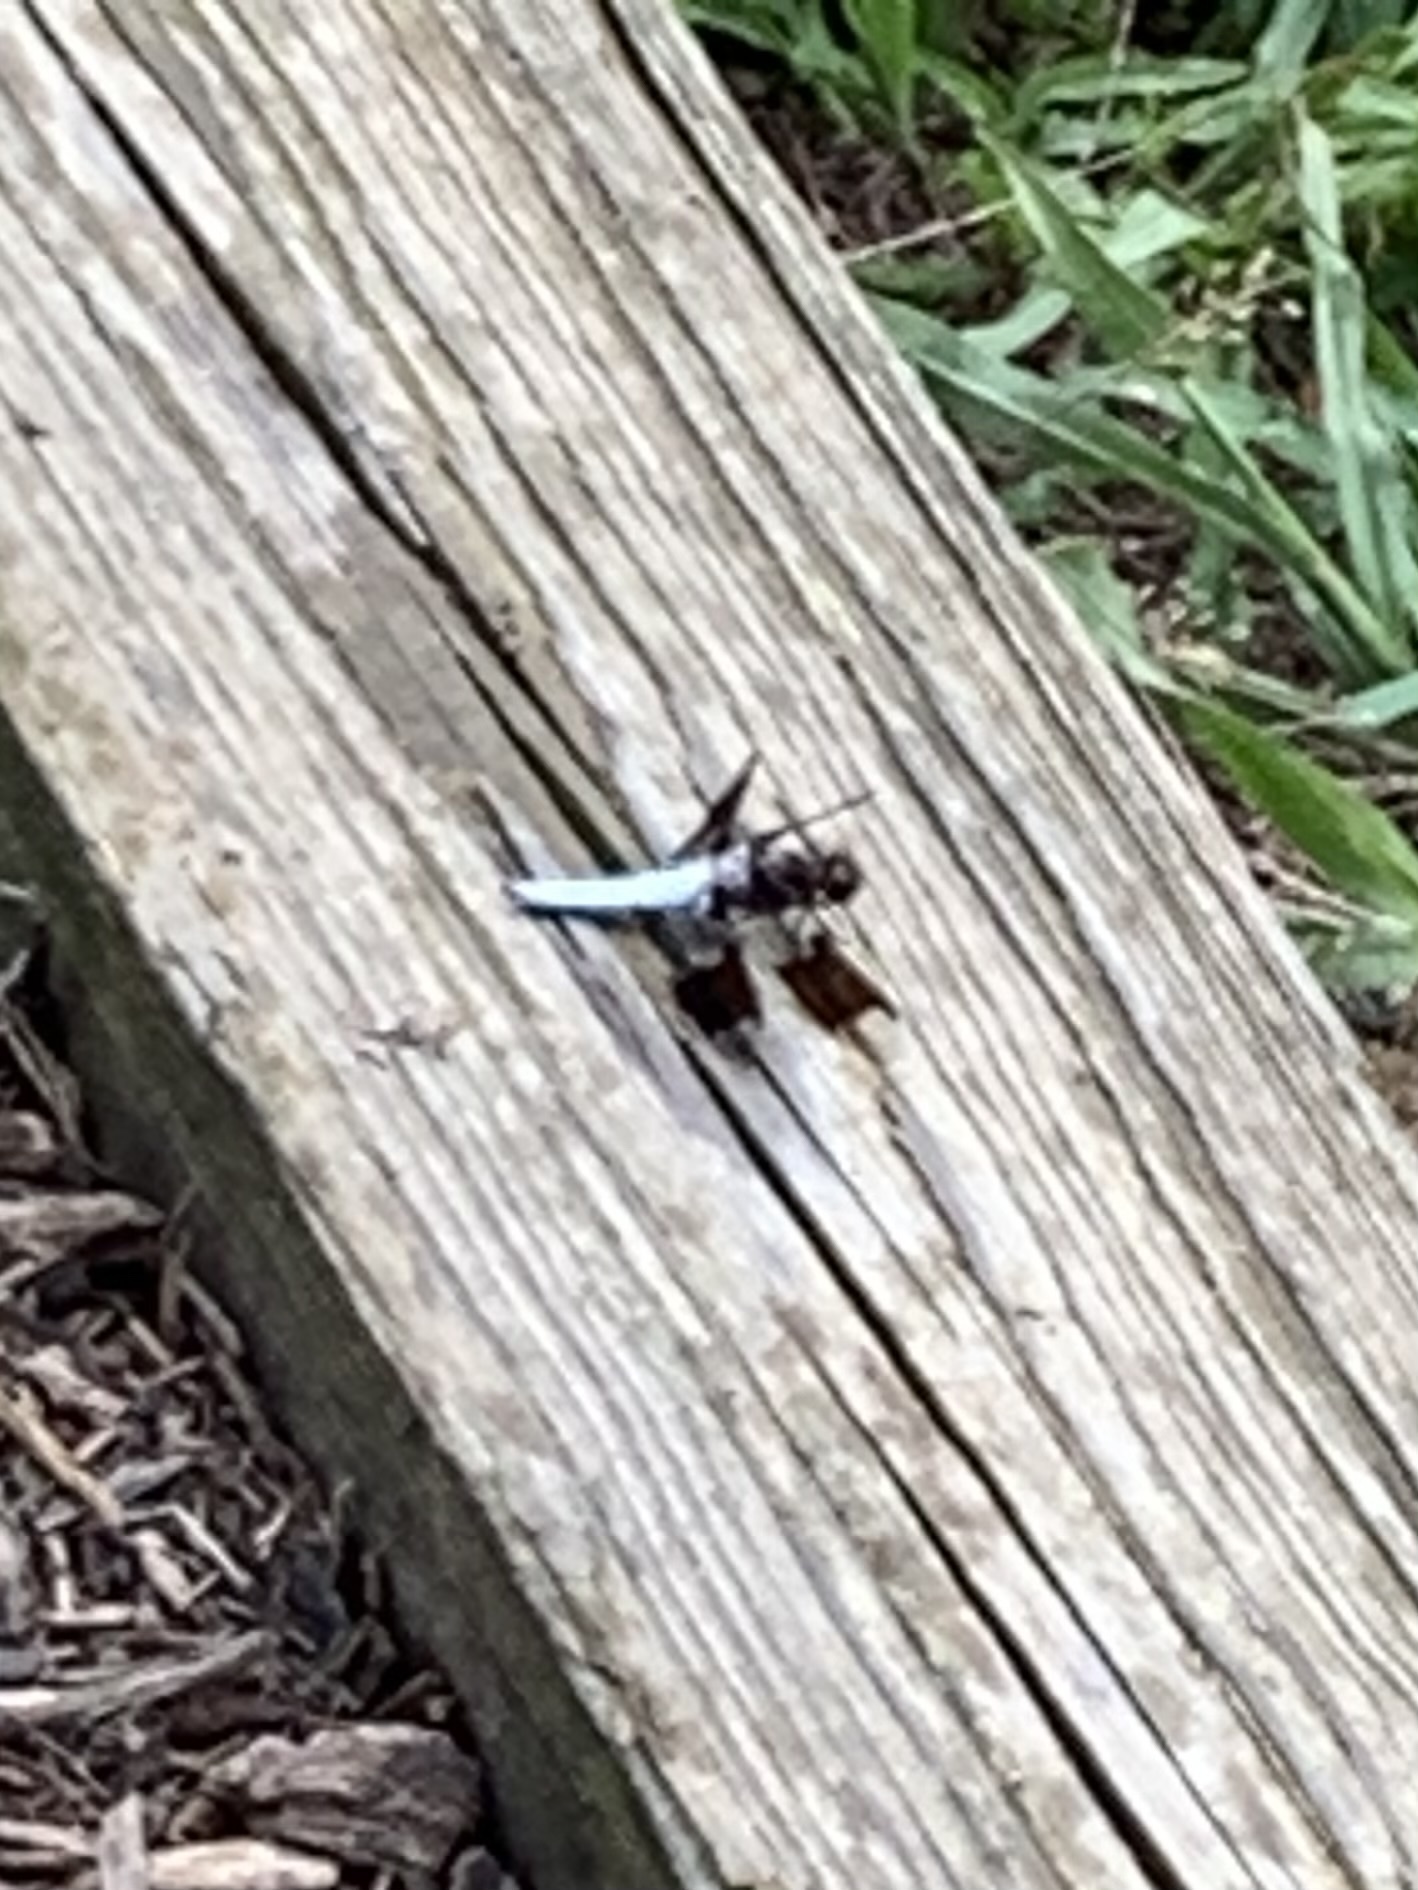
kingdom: Animalia
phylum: Arthropoda
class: Insecta
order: Odonata
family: Libellulidae
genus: Plathemis
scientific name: Plathemis lydia
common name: Common whitetail
